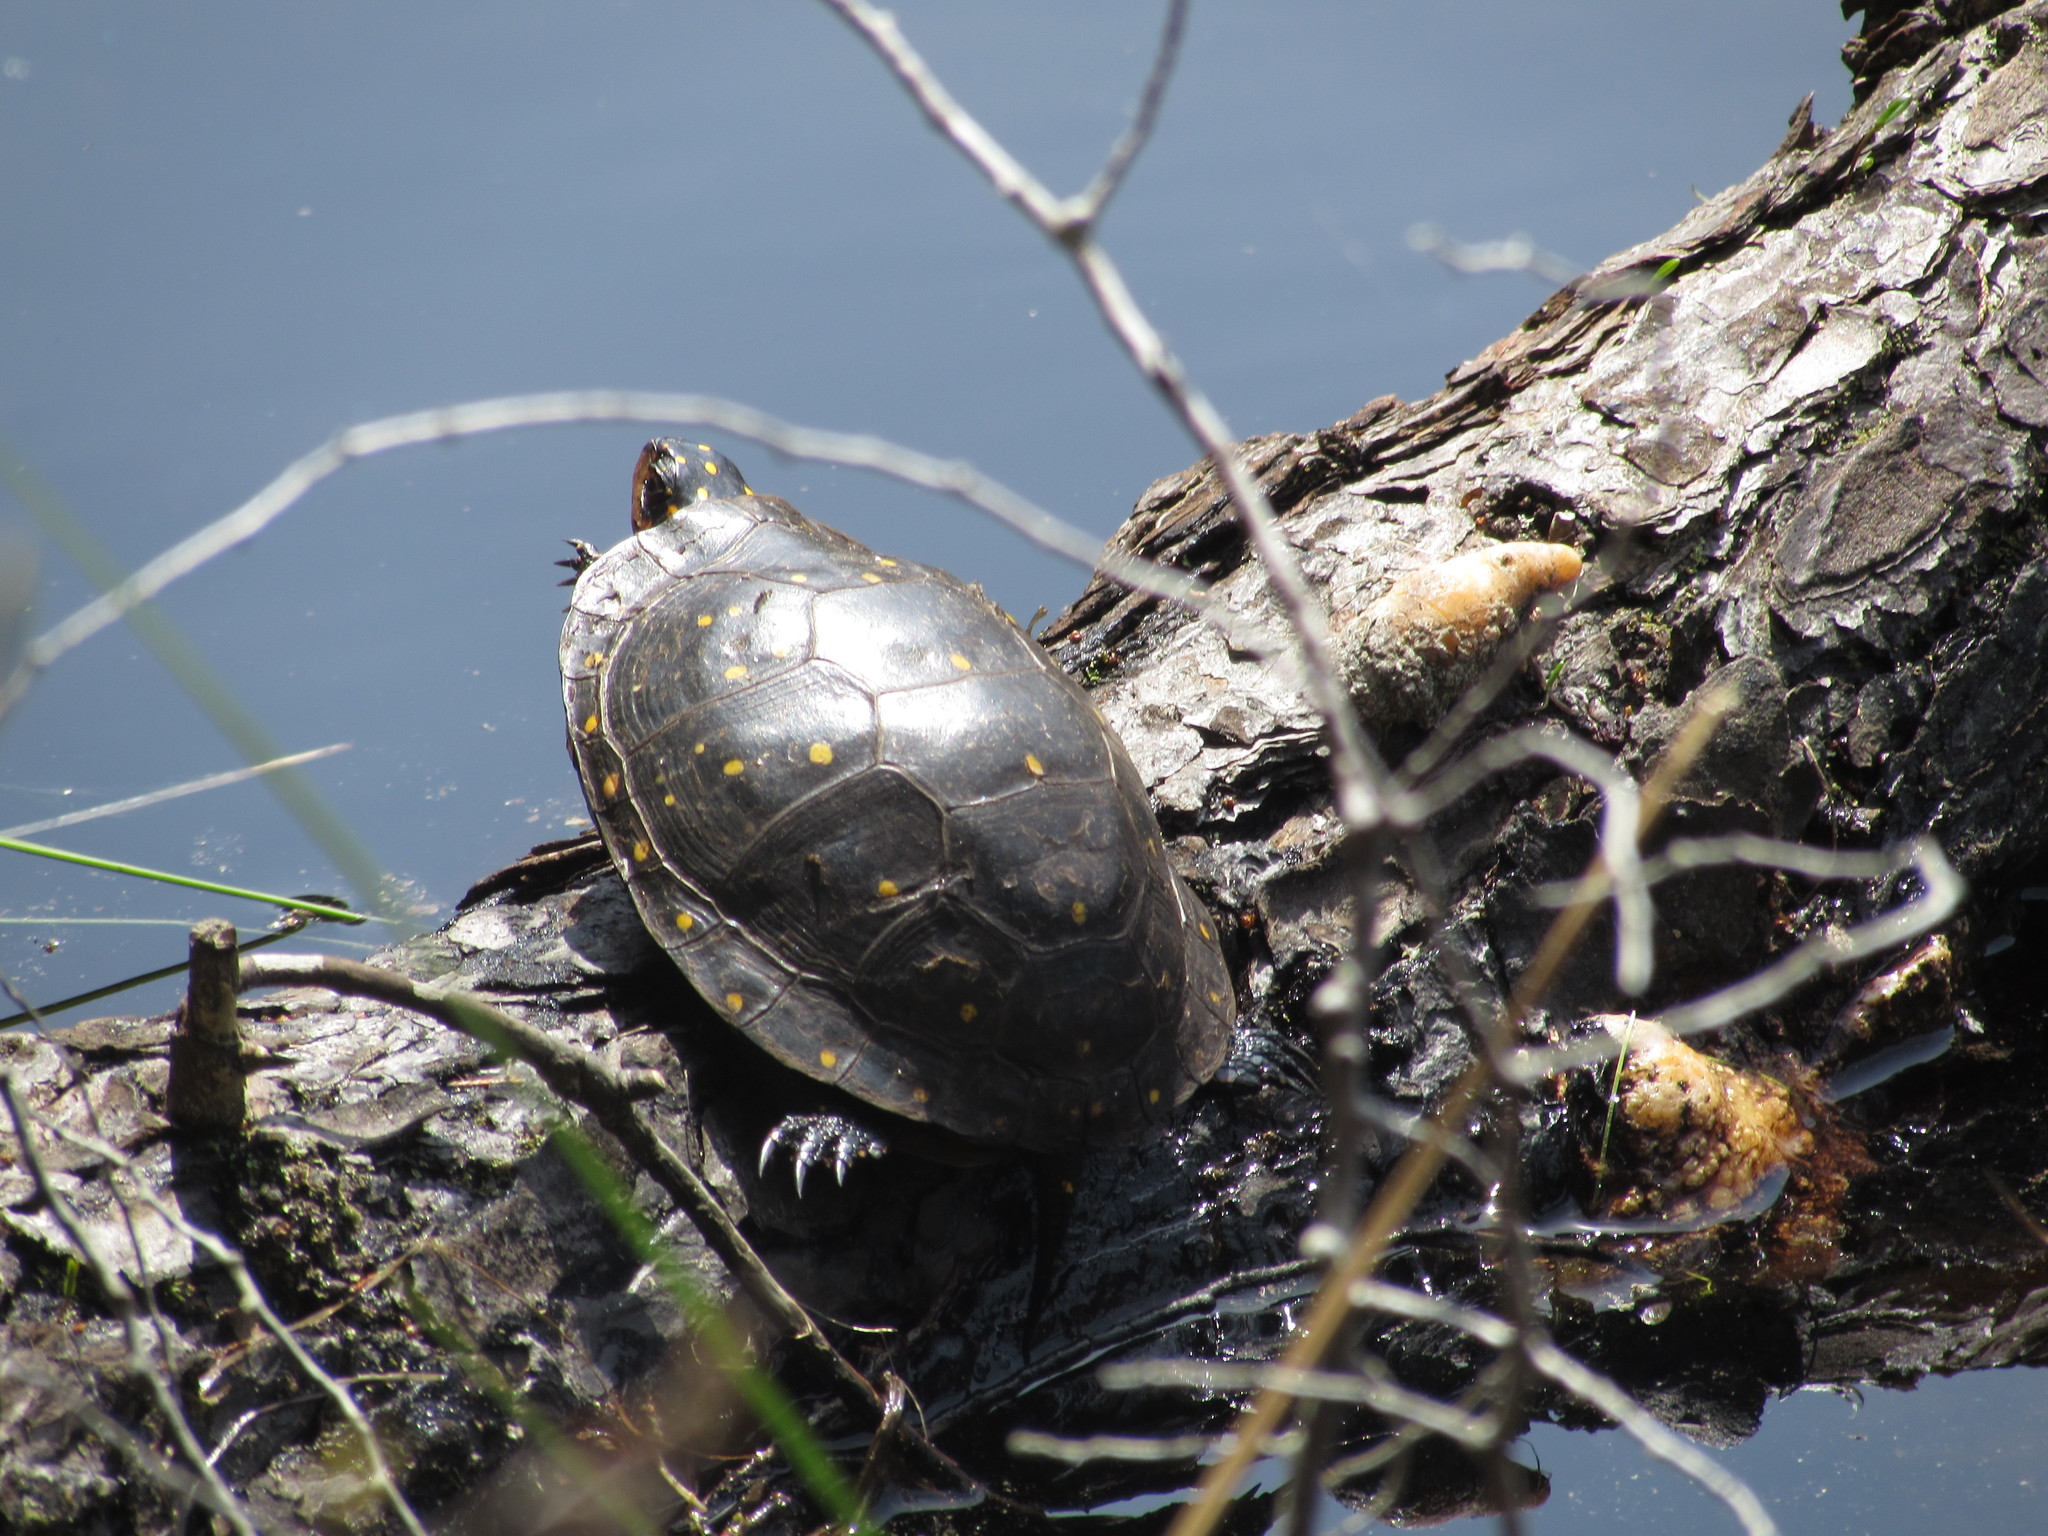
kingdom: Animalia
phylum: Chordata
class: Testudines
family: Emydidae
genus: Clemmys
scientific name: Clemmys guttata
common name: Spotted turtle
